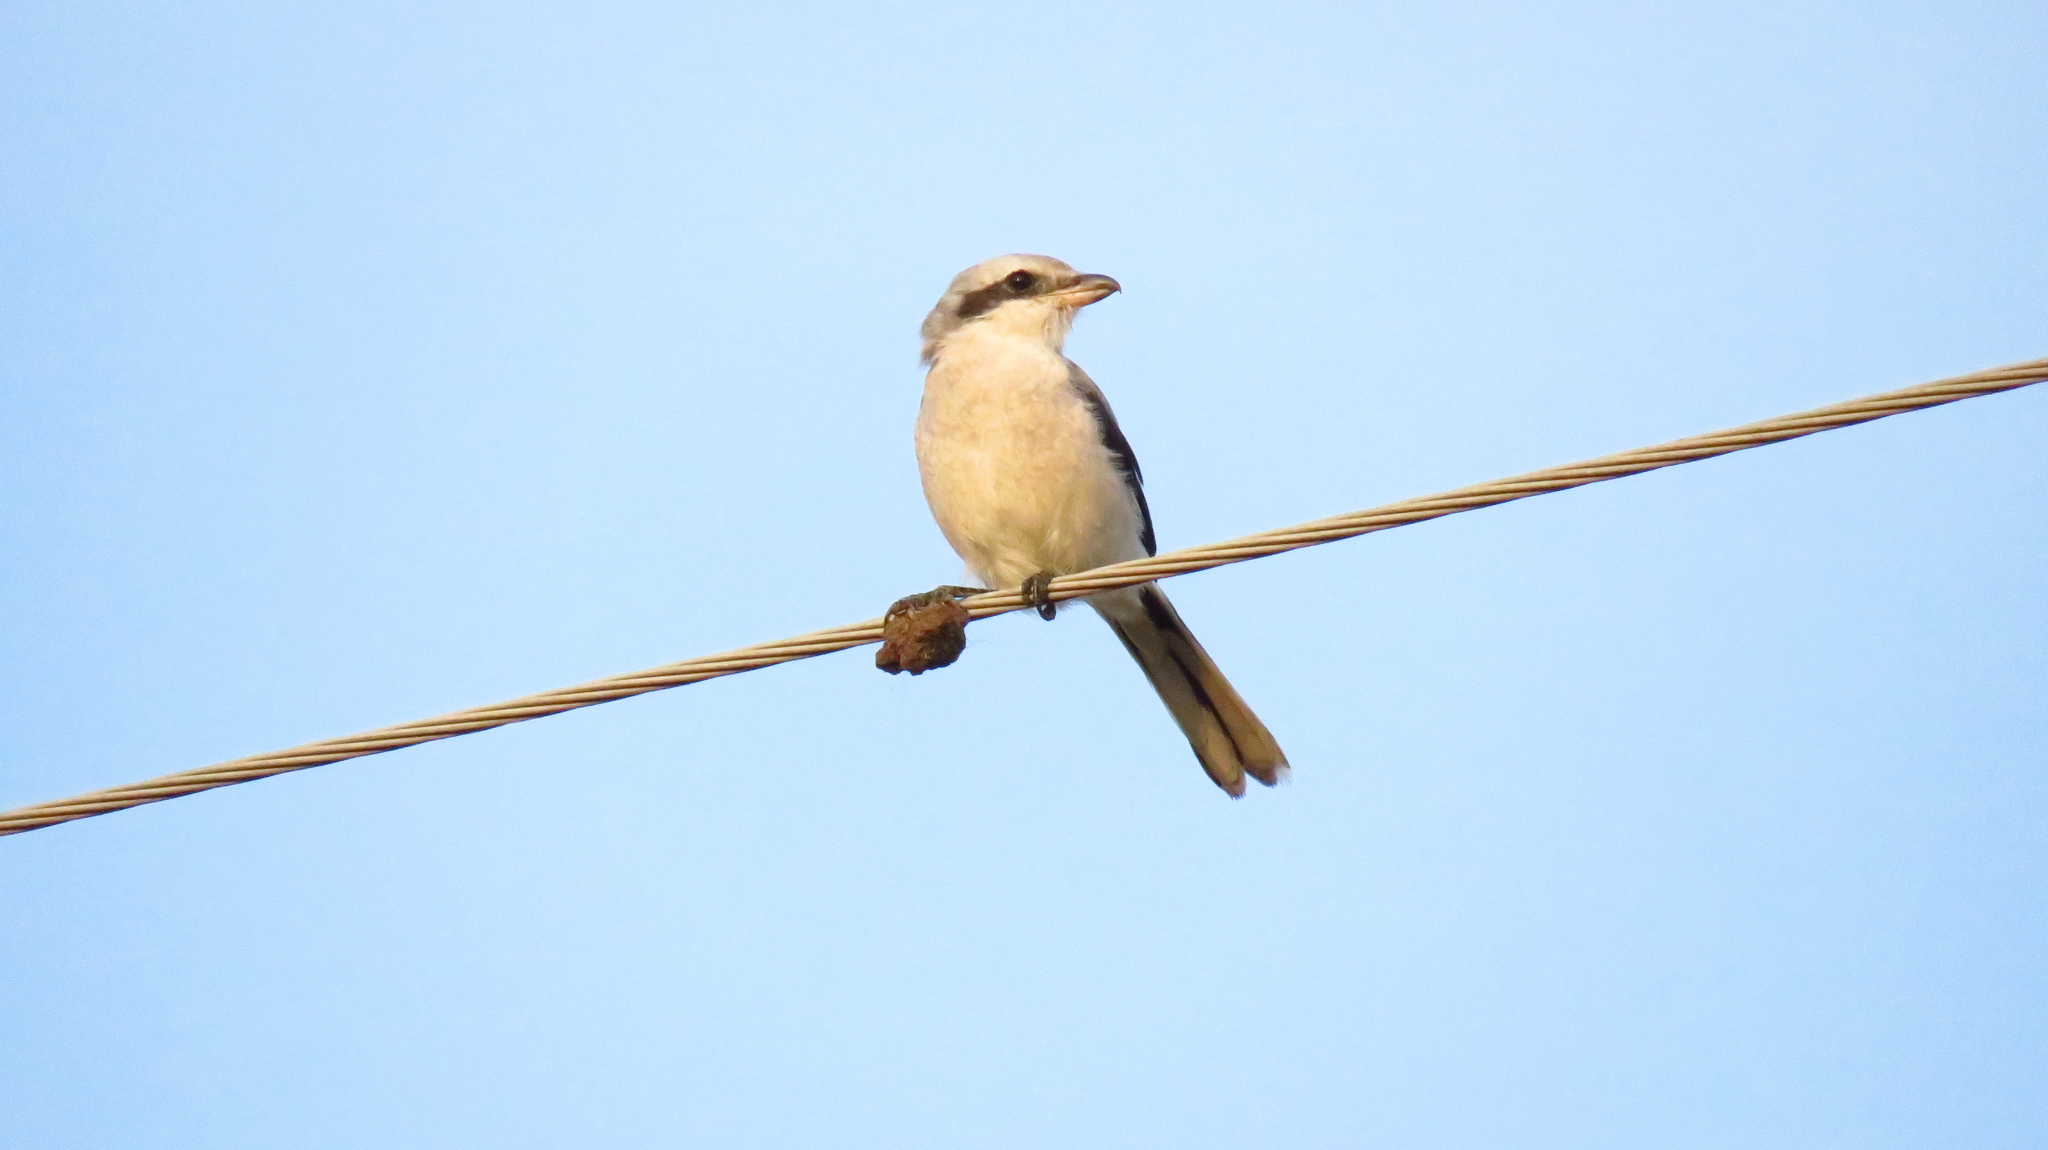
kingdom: Animalia
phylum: Chordata
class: Aves
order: Passeriformes
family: Laniidae
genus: Lanius
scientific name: Lanius excubitor
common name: Great grey shrike
